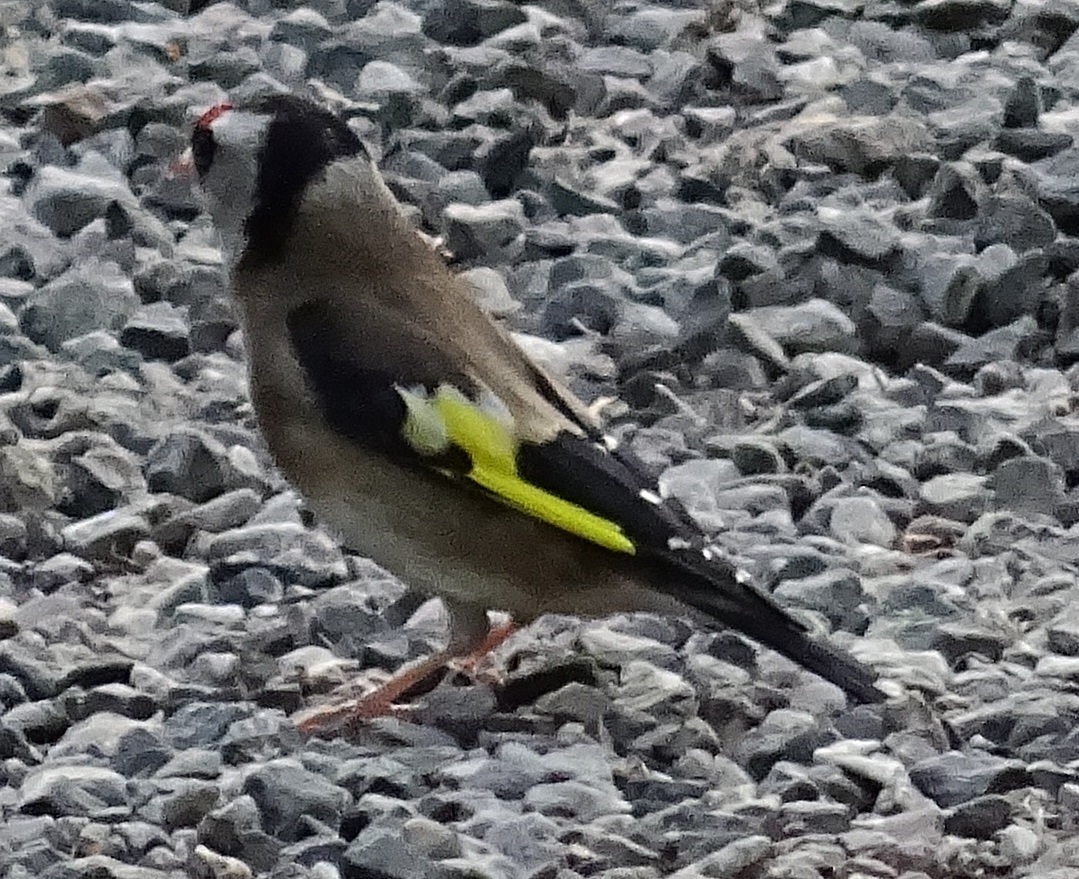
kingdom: Animalia
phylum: Chordata
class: Aves
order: Passeriformes
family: Fringillidae
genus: Carduelis
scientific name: Carduelis carduelis
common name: European goldfinch
